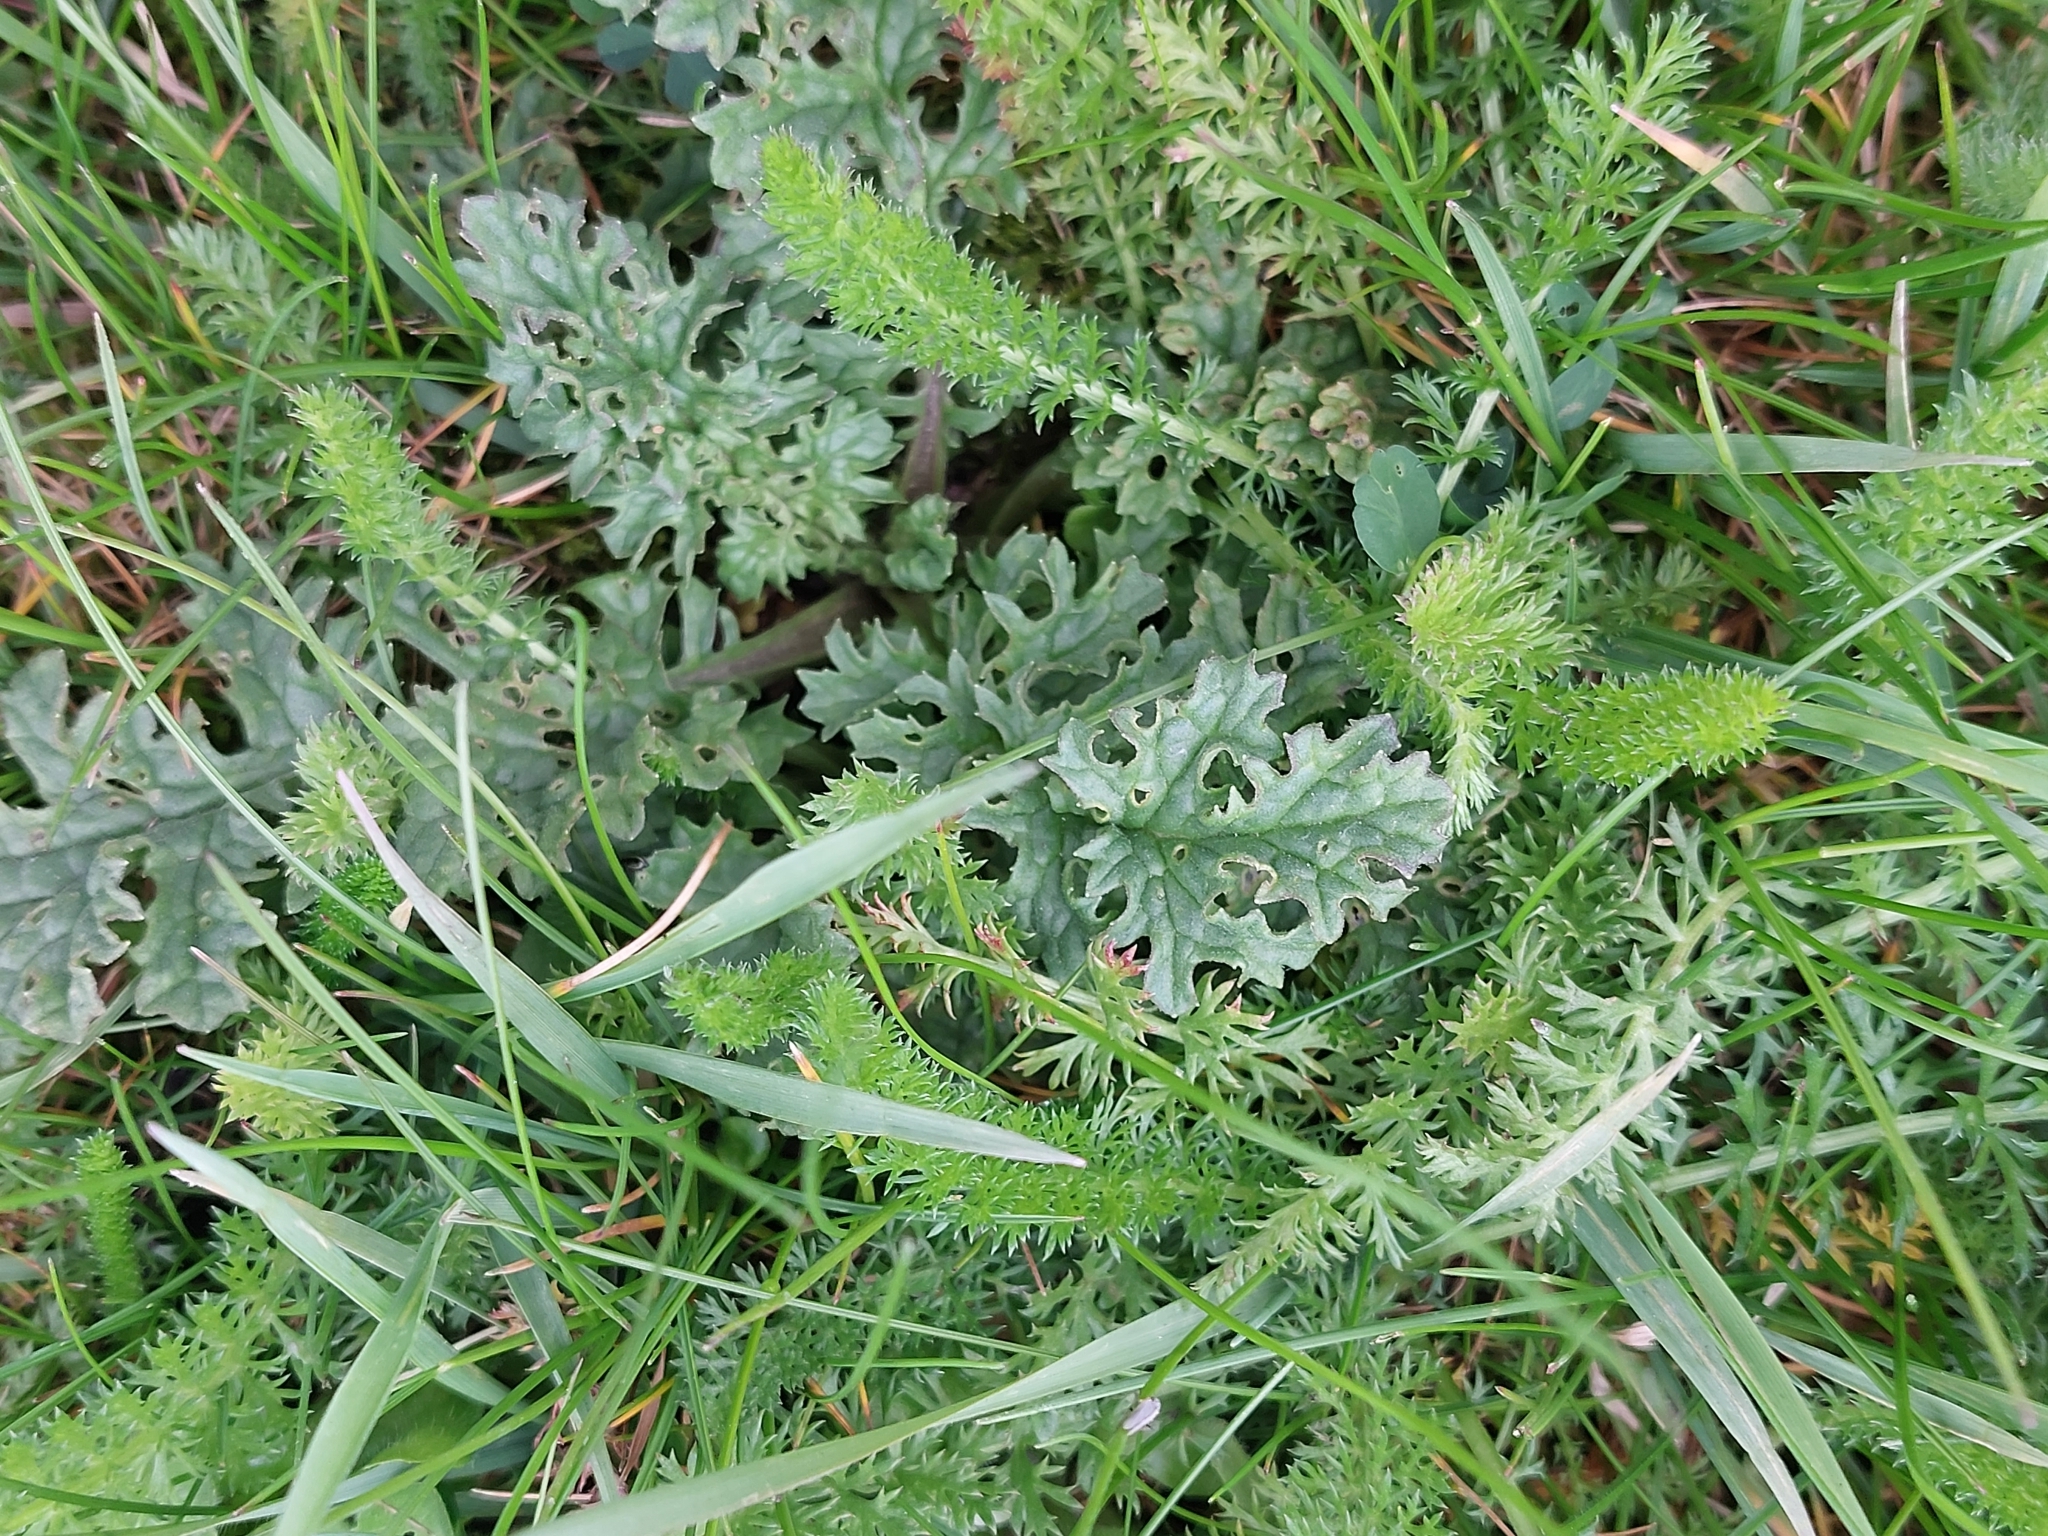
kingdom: Plantae
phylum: Tracheophyta
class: Magnoliopsida
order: Asterales
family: Asteraceae
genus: Jacobaea
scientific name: Jacobaea vulgaris
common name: Stinking willie
